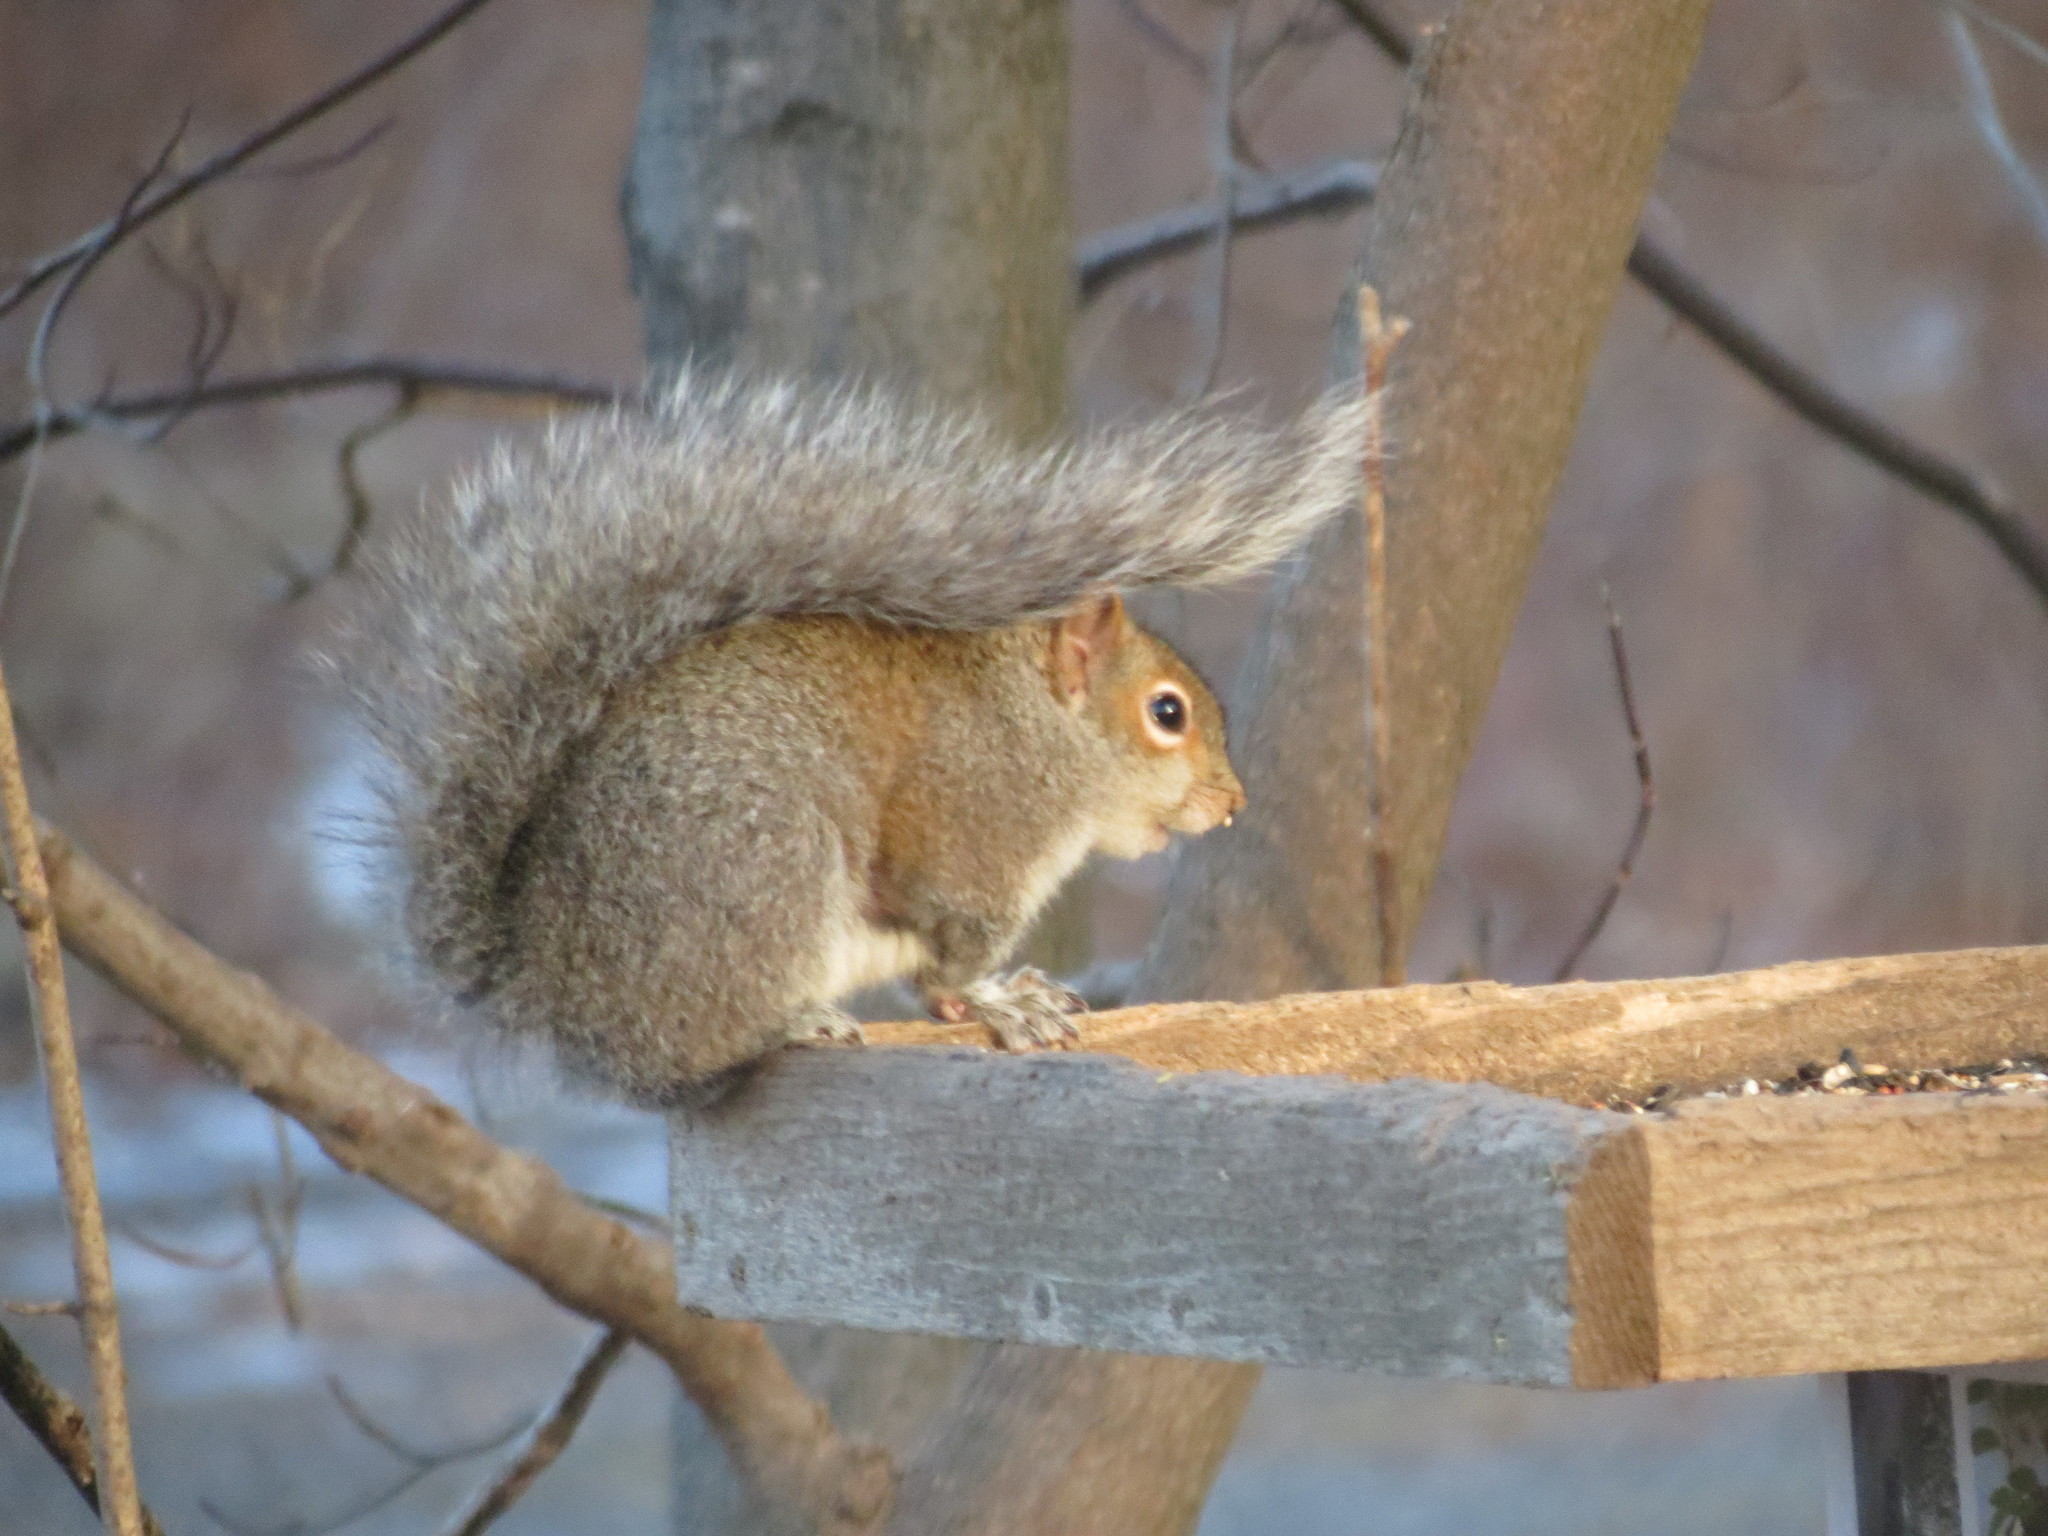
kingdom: Animalia
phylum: Chordata
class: Mammalia
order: Rodentia
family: Sciuridae
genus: Sciurus
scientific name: Sciurus carolinensis
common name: Eastern gray squirrel
